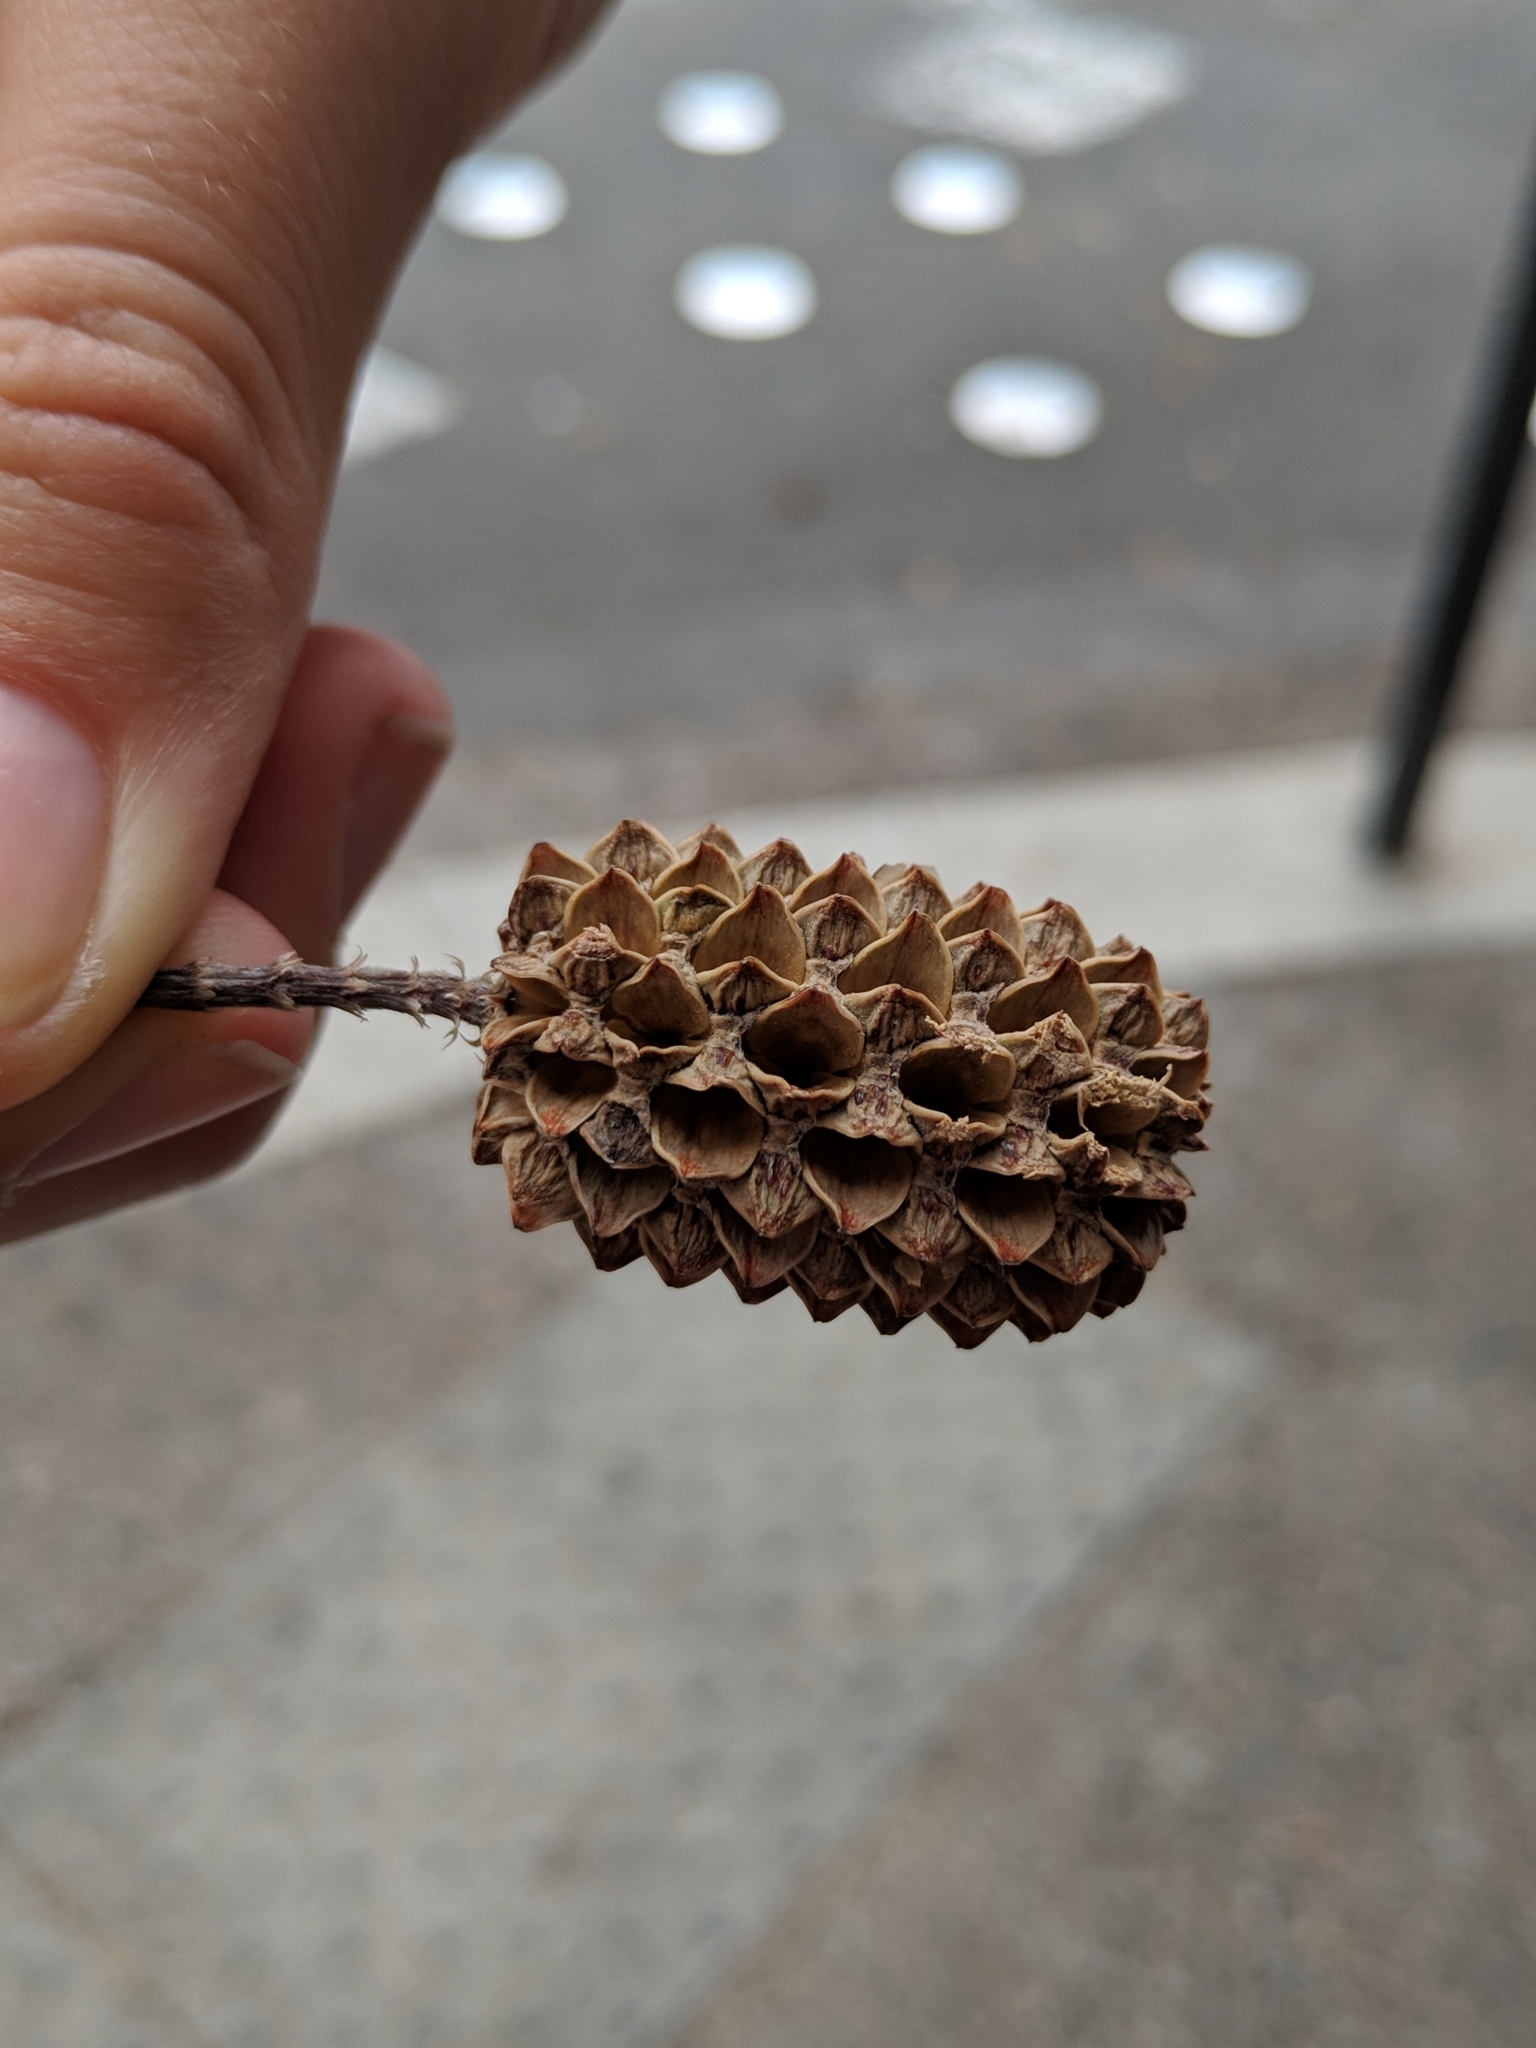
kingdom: Plantae
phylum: Tracheophyta
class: Magnoliopsida
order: Fagales
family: Casuarinaceae
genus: Casuarina
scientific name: Casuarina equisetifolia
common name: Beach sheoak
